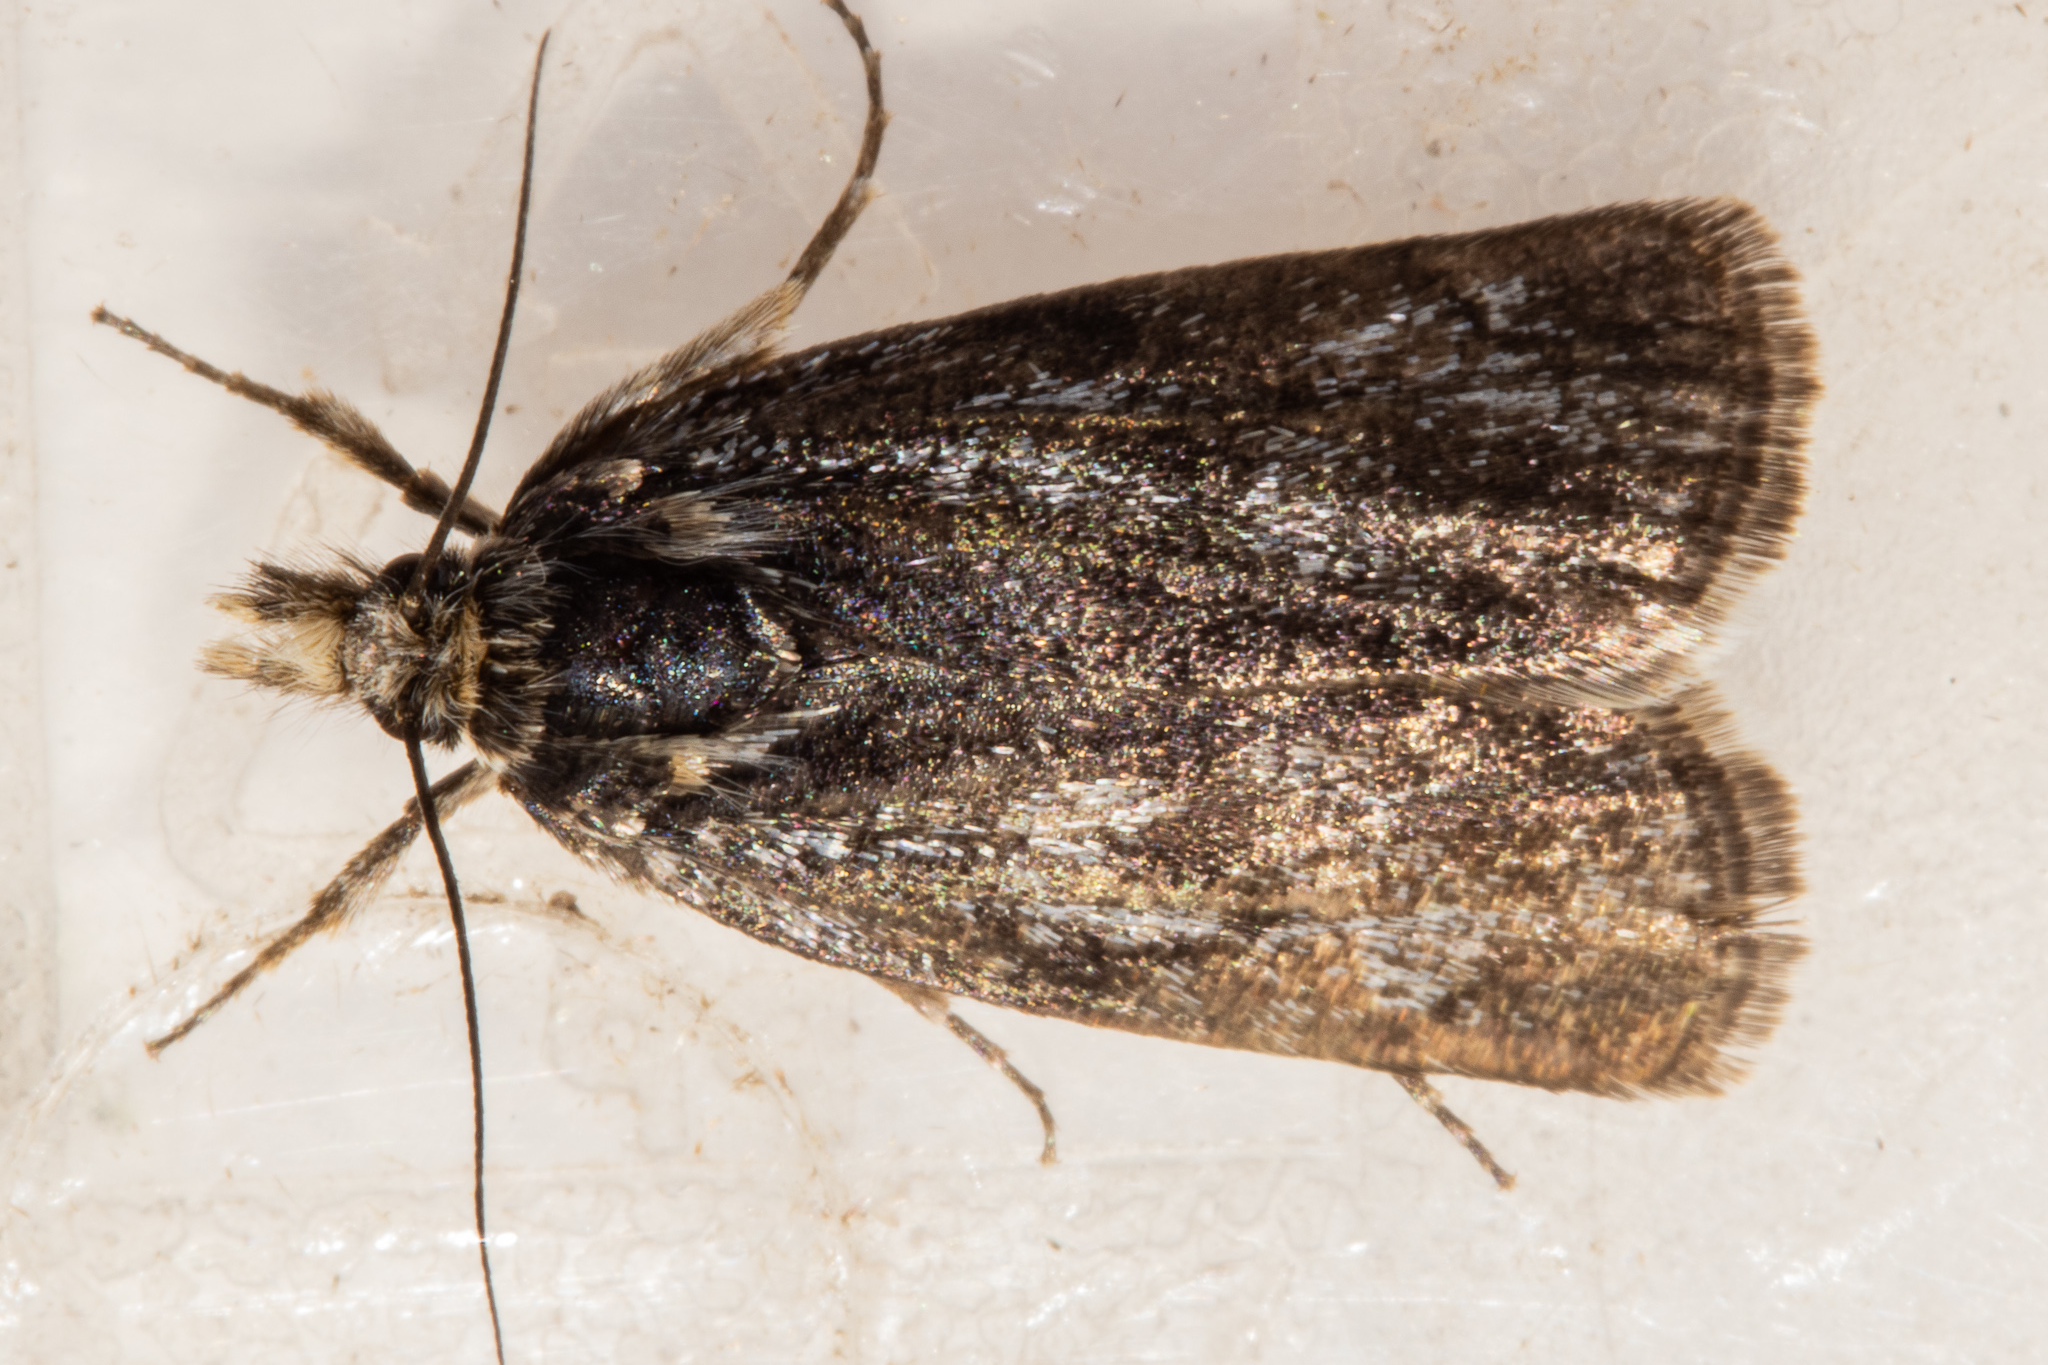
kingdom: Animalia
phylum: Arthropoda
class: Insecta
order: Lepidoptera
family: Crambidae
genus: Tawhitia
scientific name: Tawhitia glaucophanes
